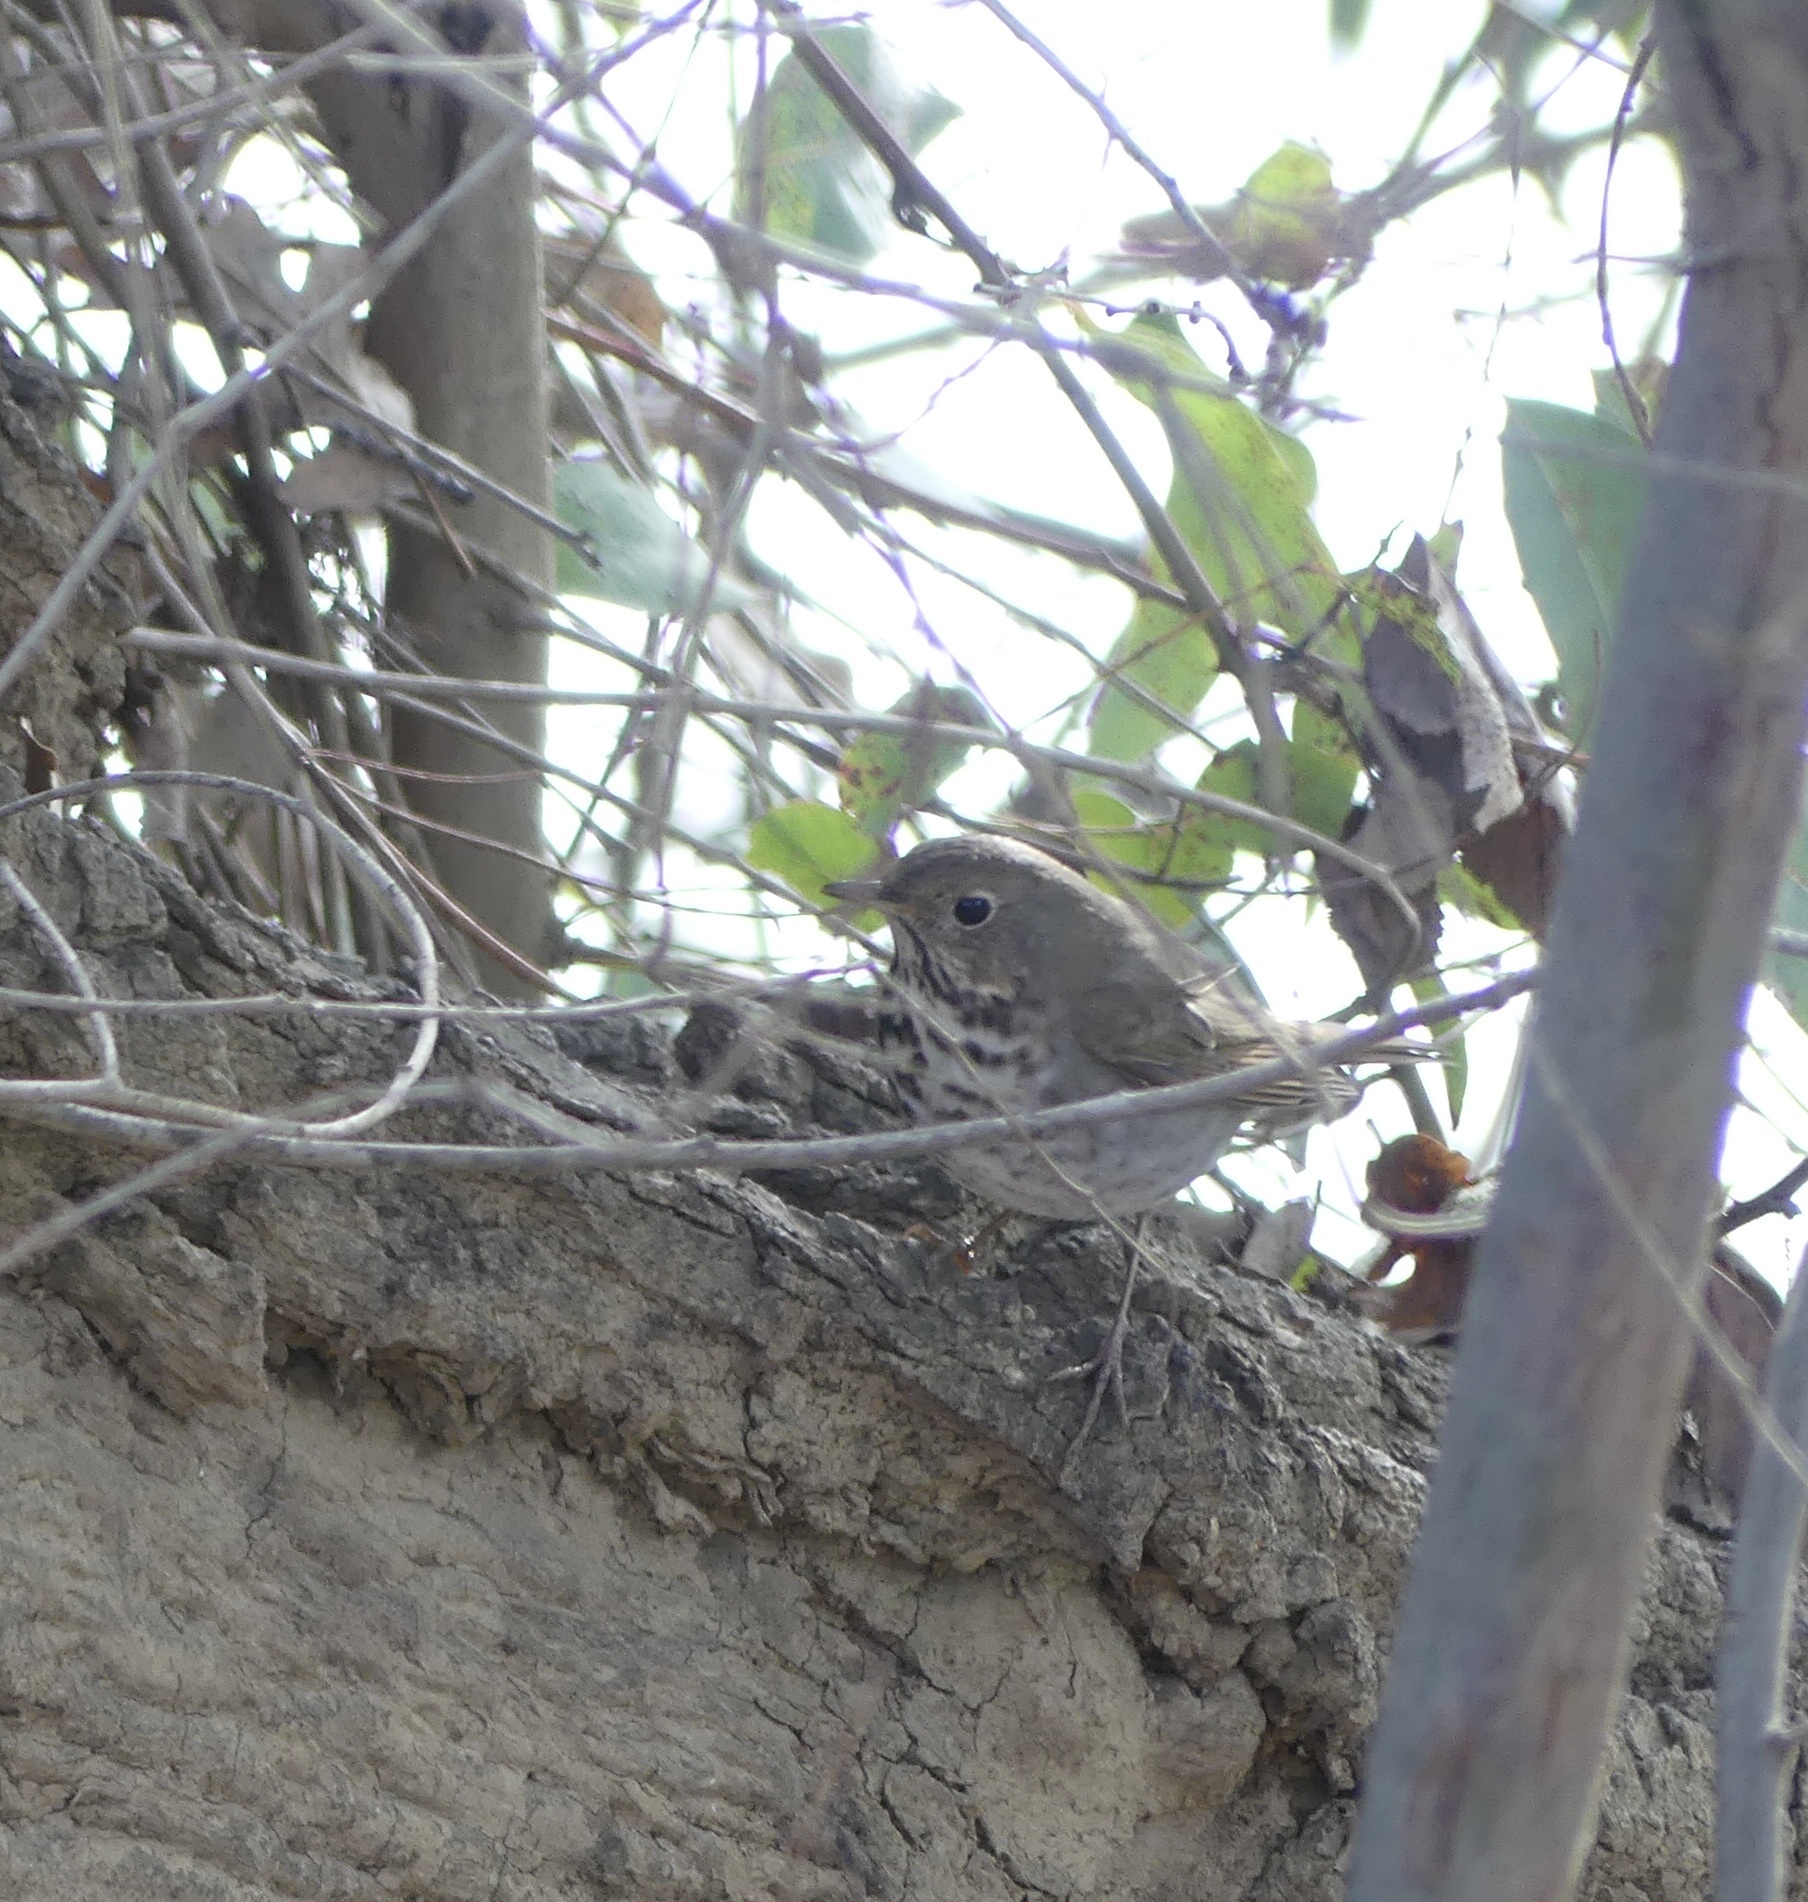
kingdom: Animalia
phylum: Chordata
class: Aves
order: Passeriformes
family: Turdidae
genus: Catharus
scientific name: Catharus guttatus
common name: Hermit thrush
